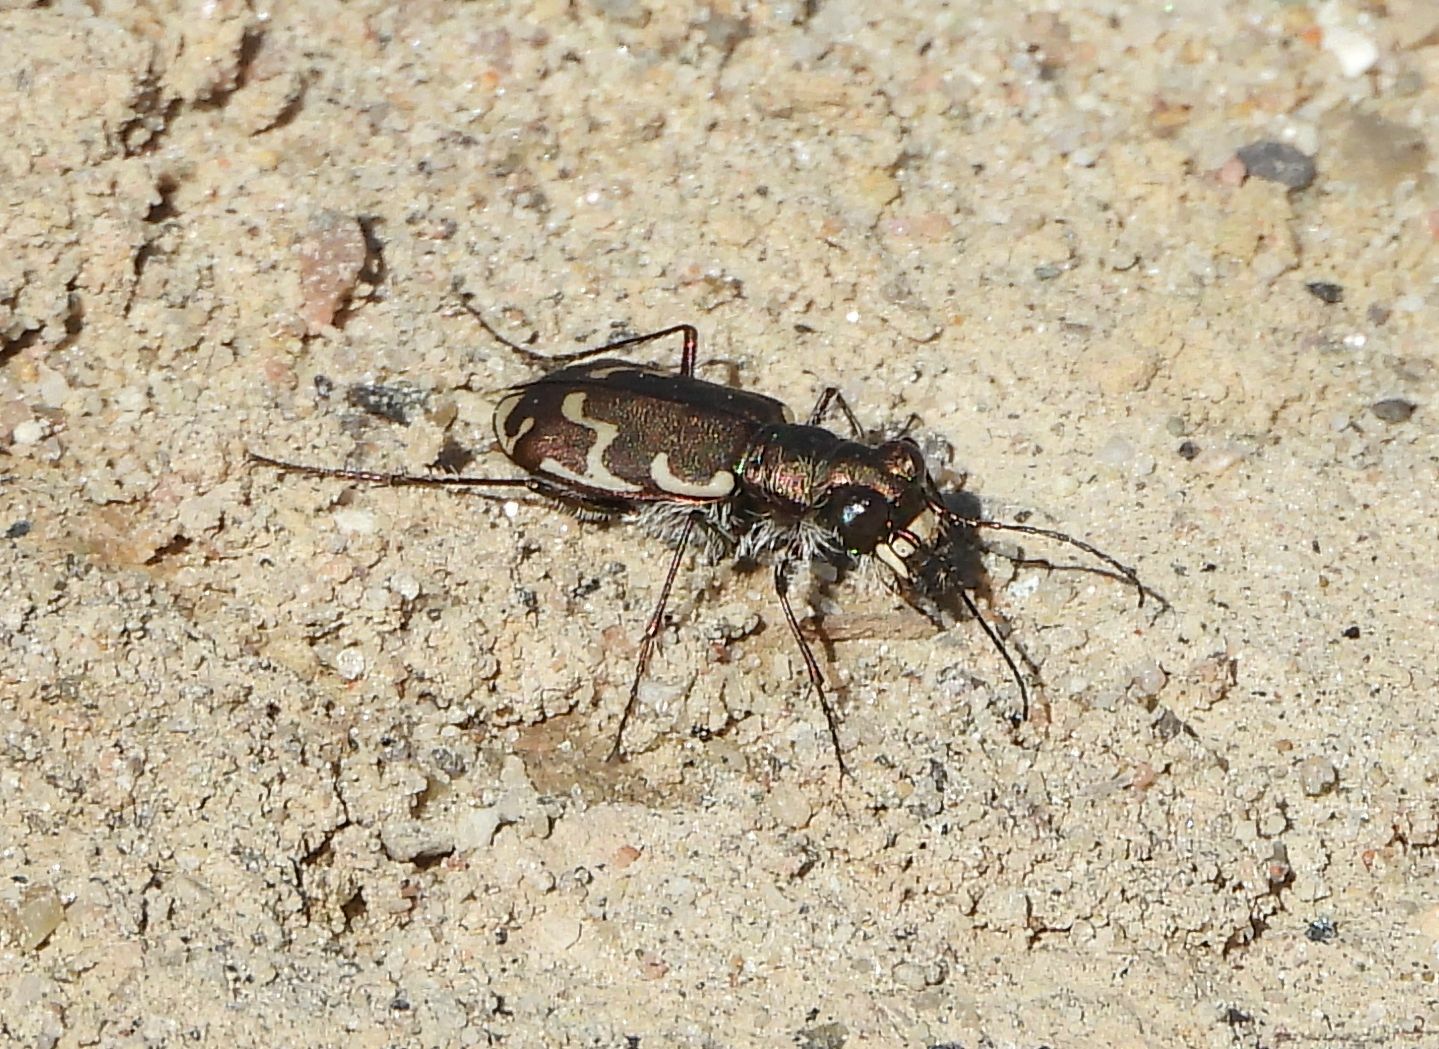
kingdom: Animalia
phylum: Arthropoda
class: Insecta
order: Coleoptera
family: Carabidae
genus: Cicindela
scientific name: Cicindela repanda
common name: Bronzed tiger beetle
